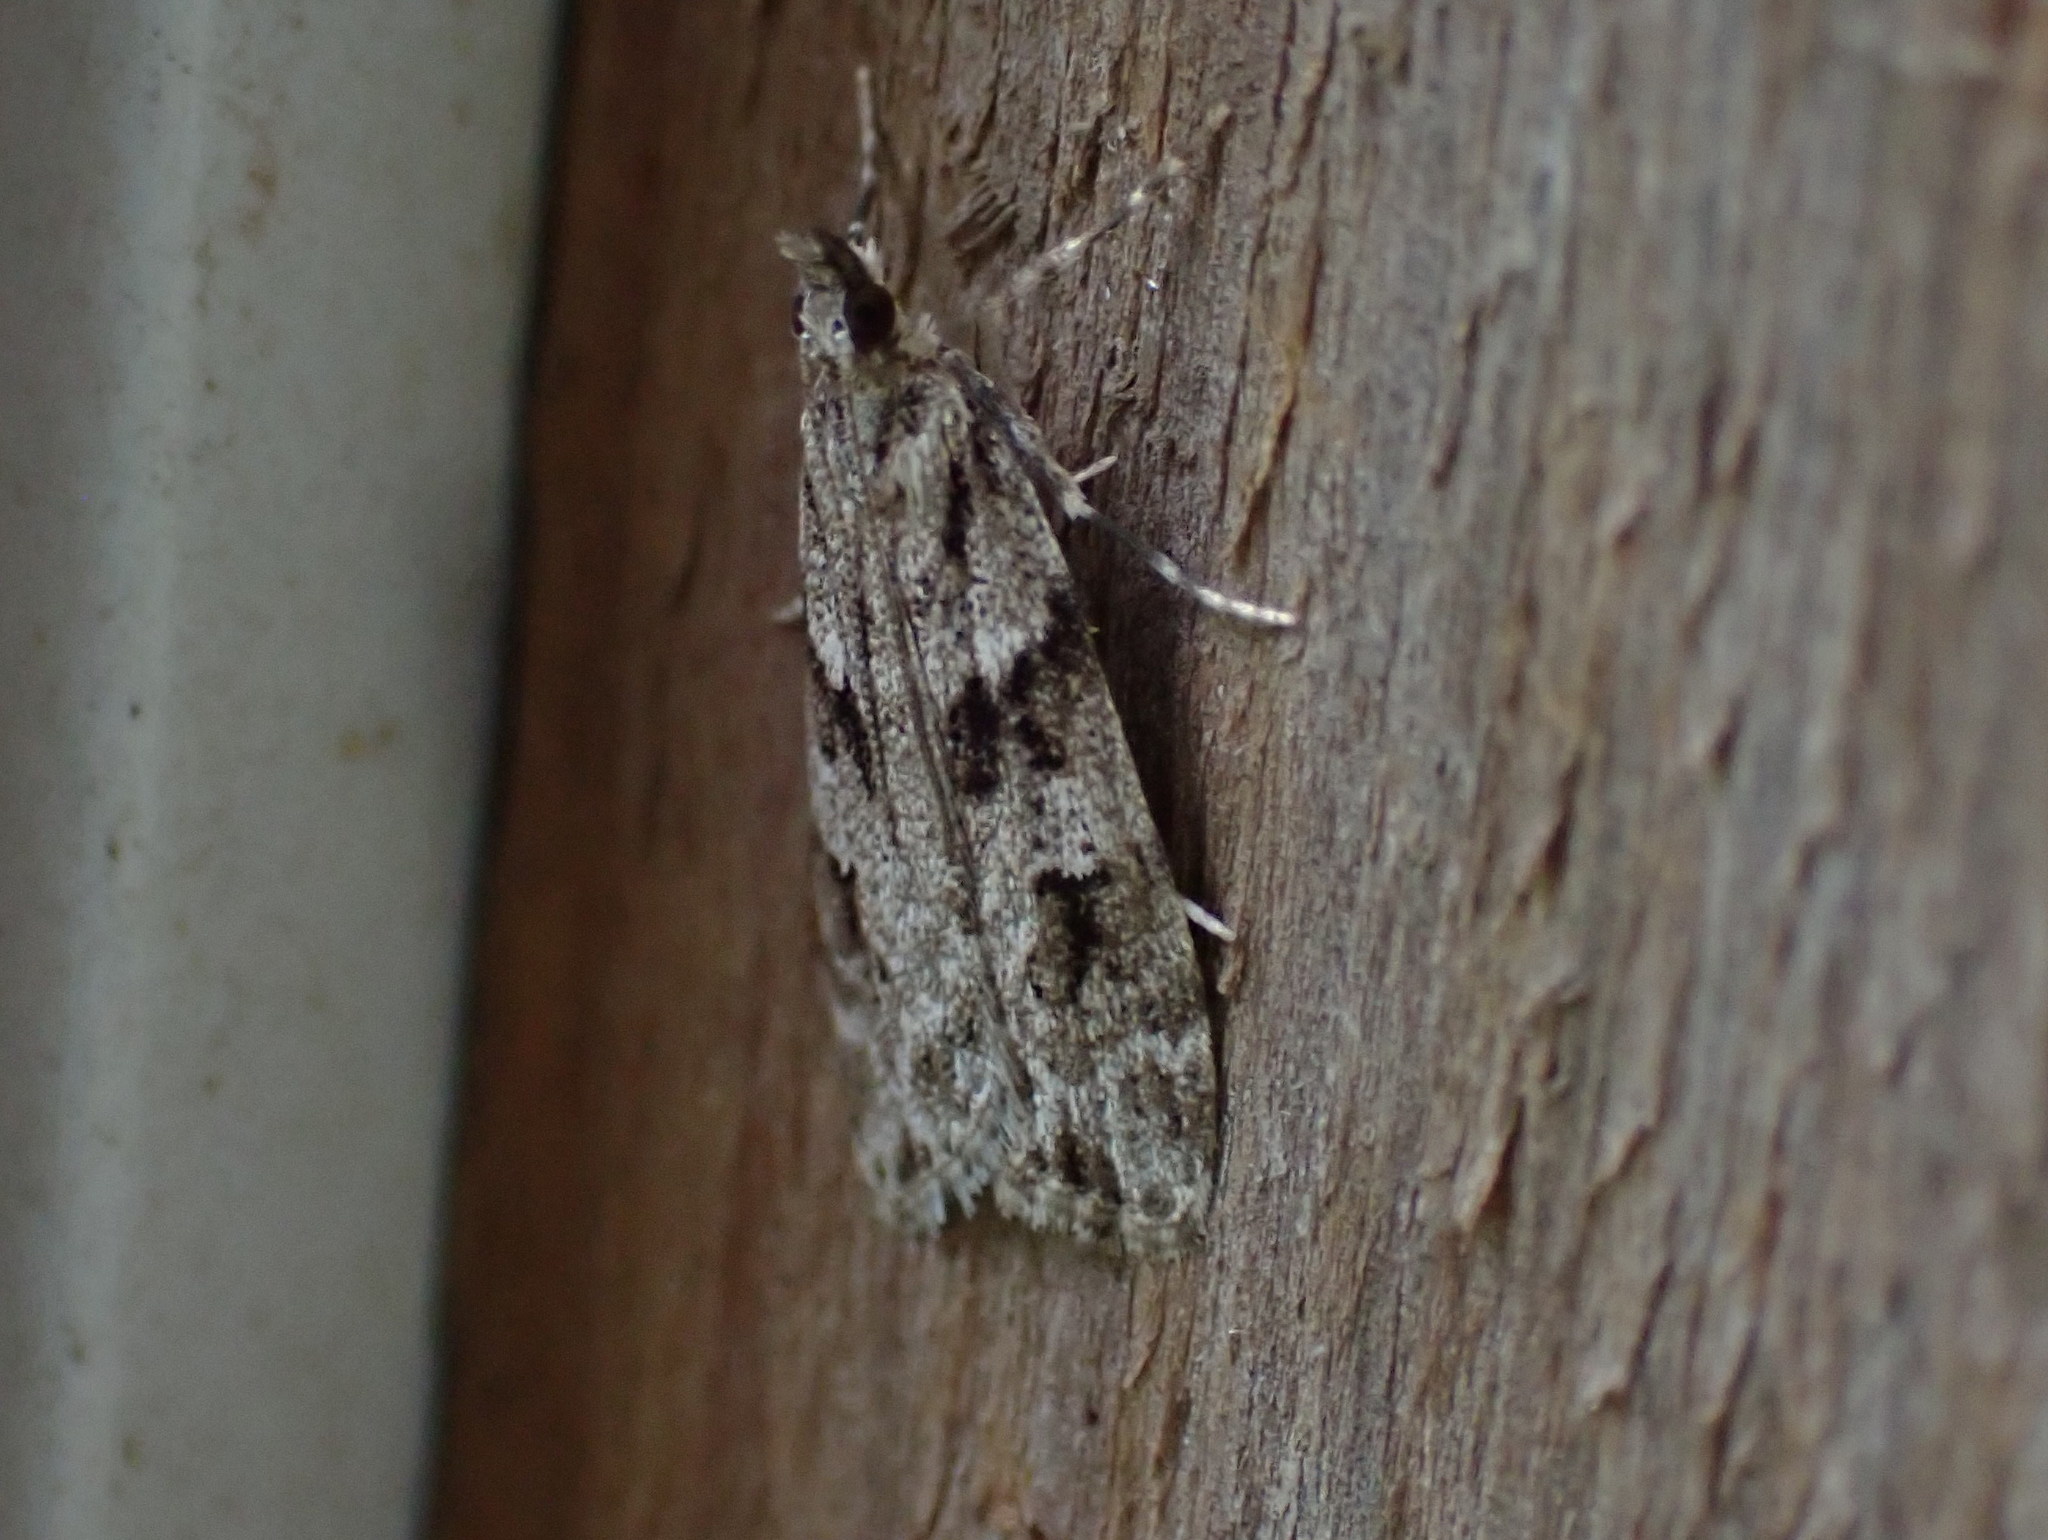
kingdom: Animalia
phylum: Arthropoda
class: Insecta
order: Lepidoptera
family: Crambidae
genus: Scoparia
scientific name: Scoparia biplagialis
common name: Double-striped scoparia moth
